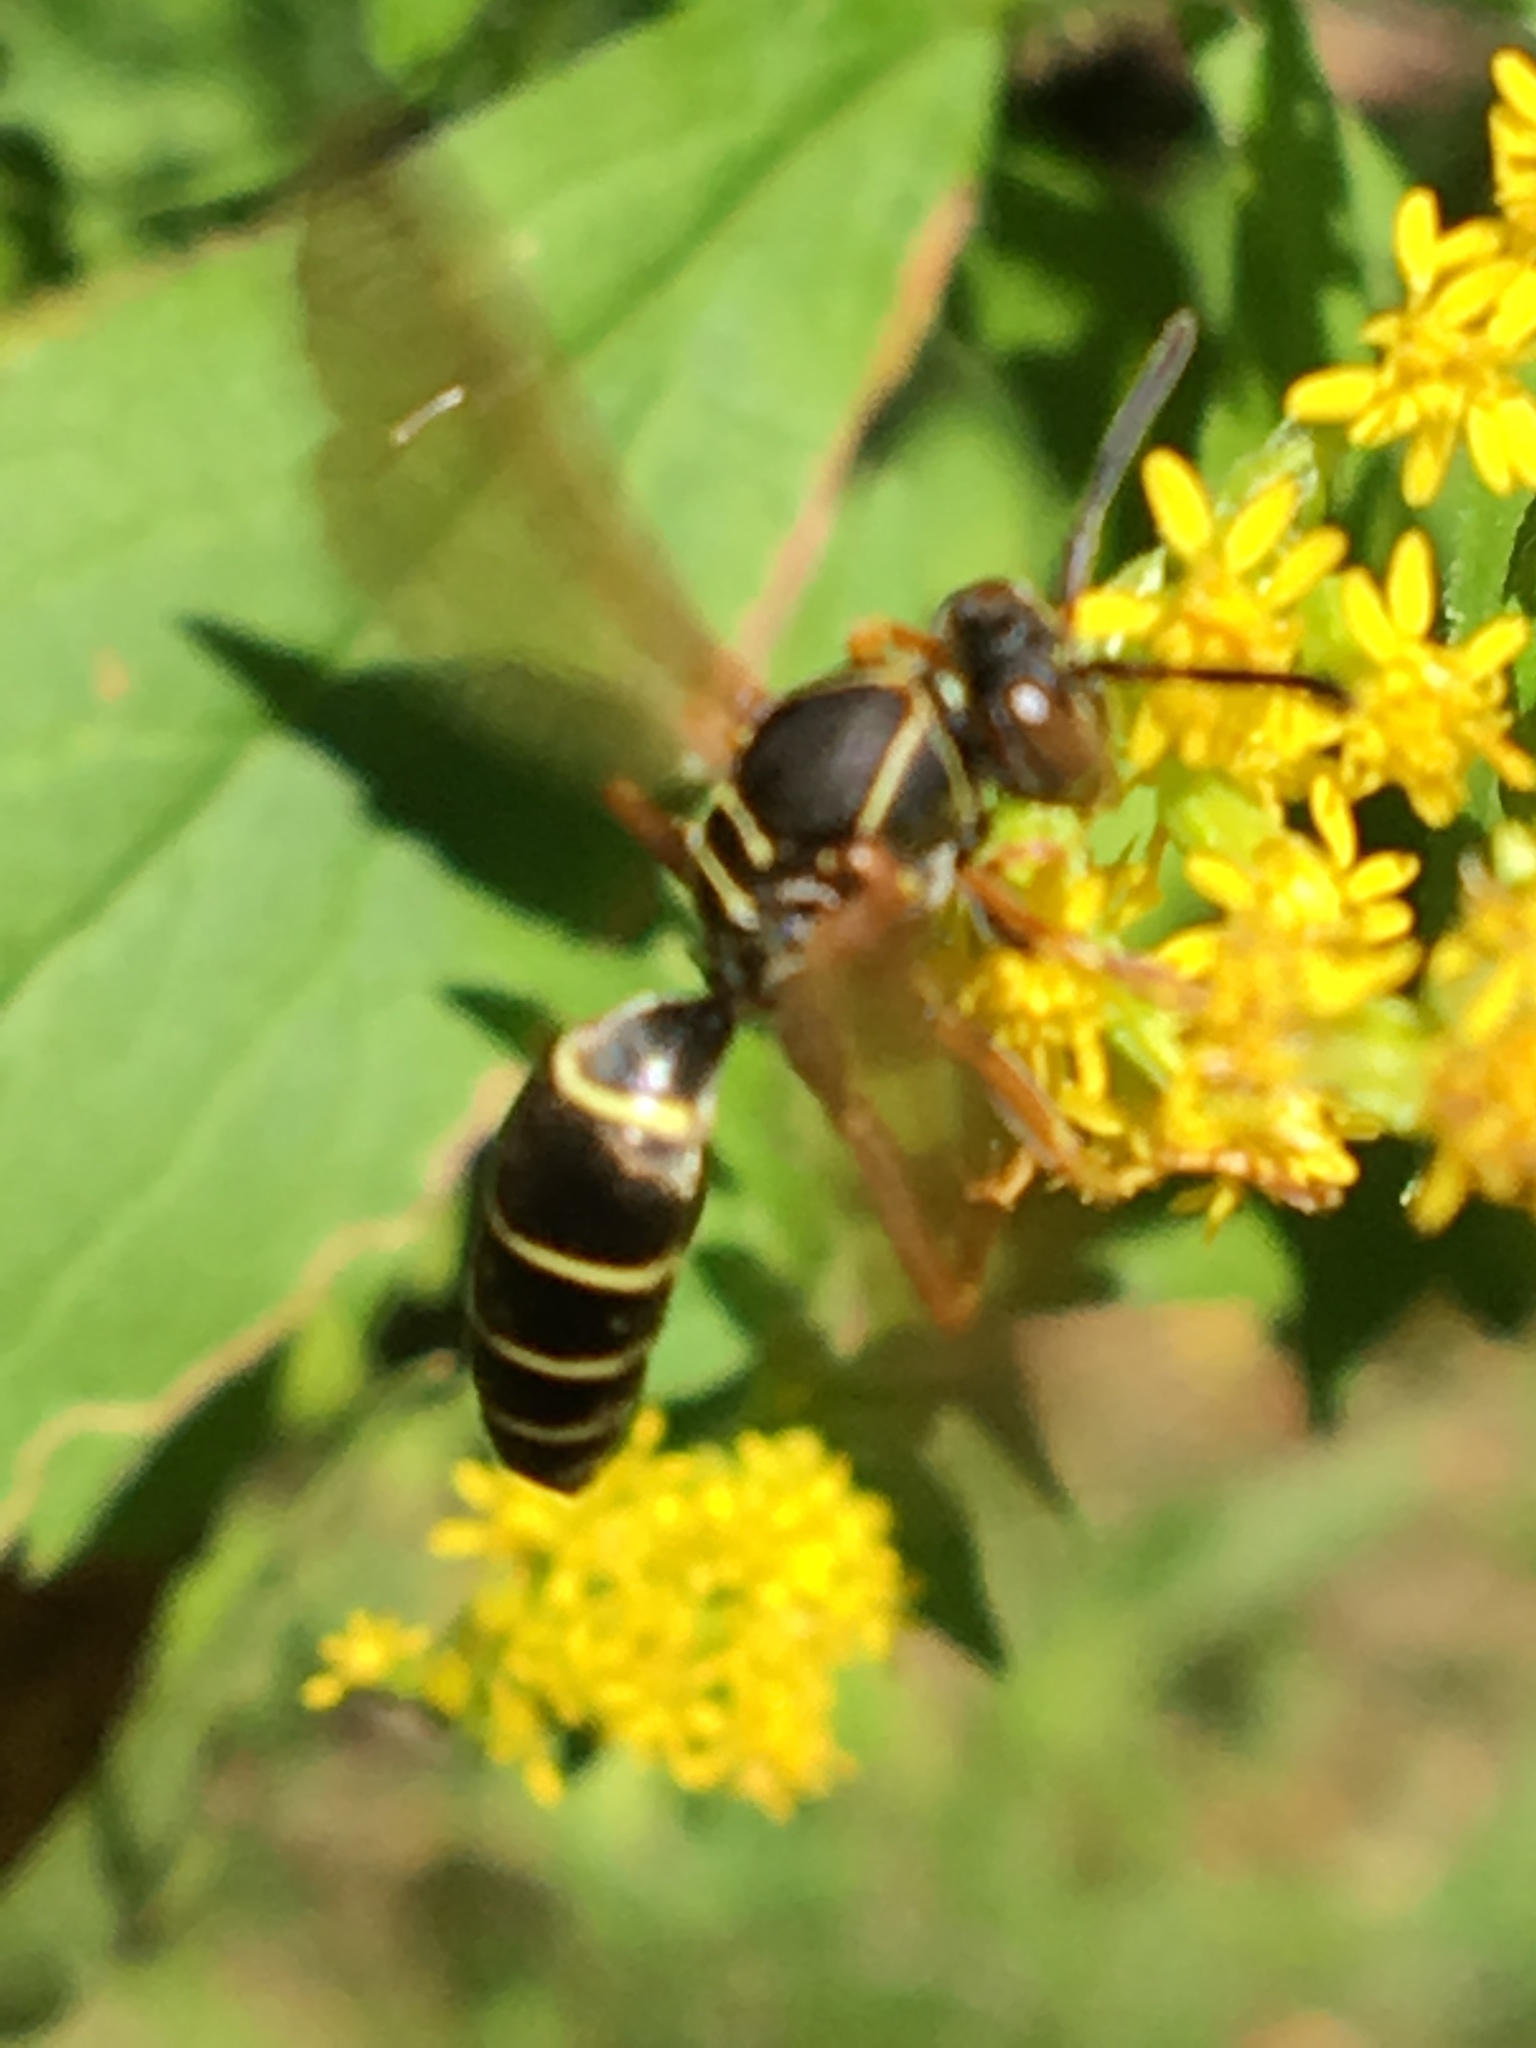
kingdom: Animalia
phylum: Arthropoda
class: Insecta
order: Hymenoptera
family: Eumenidae
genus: Polistes
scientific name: Polistes fuscatus
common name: Dark paper wasp
